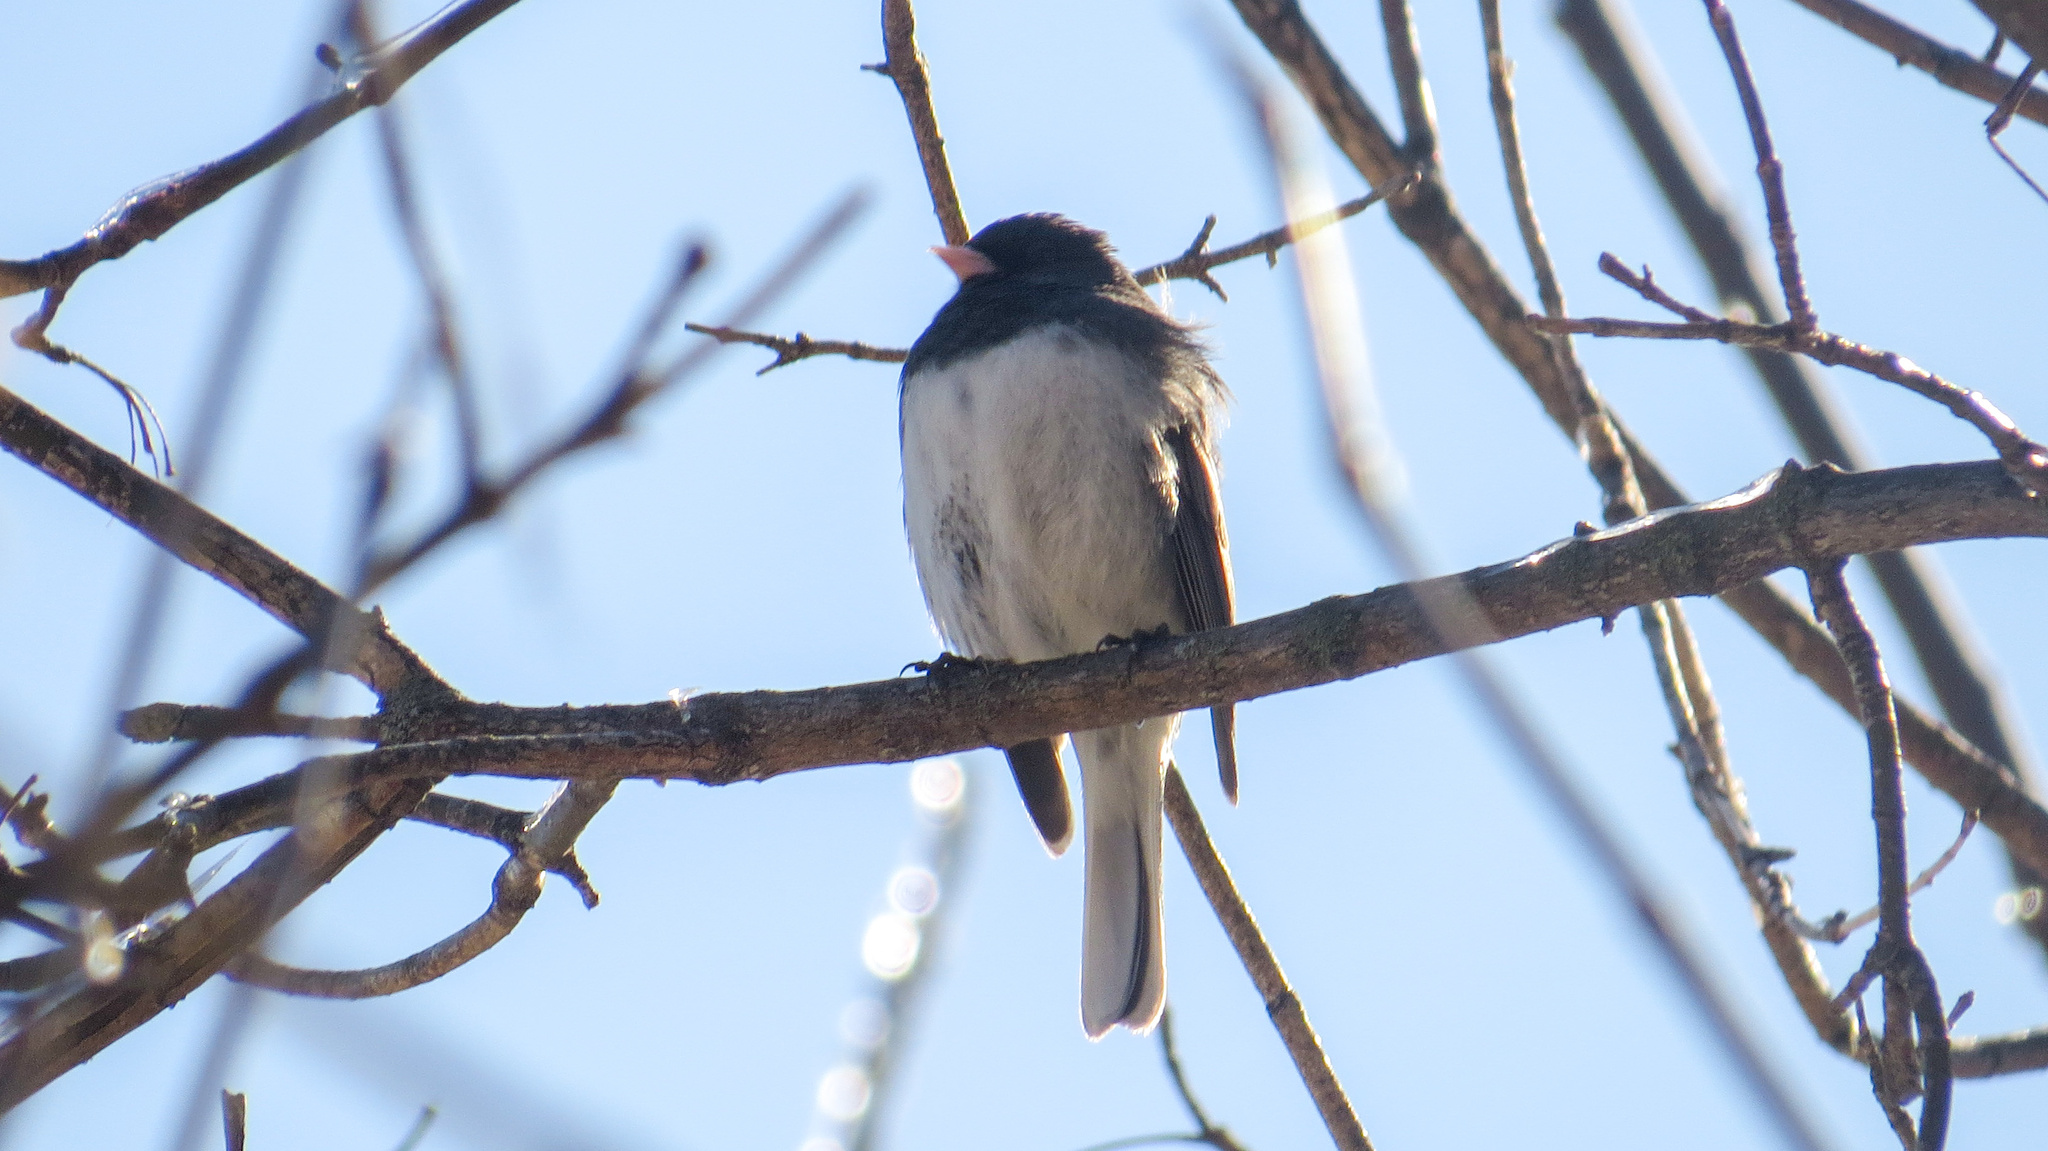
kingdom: Animalia
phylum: Chordata
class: Aves
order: Passeriformes
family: Passerellidae
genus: Junco
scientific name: Junco hyemalis
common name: Dark-eyed junco
